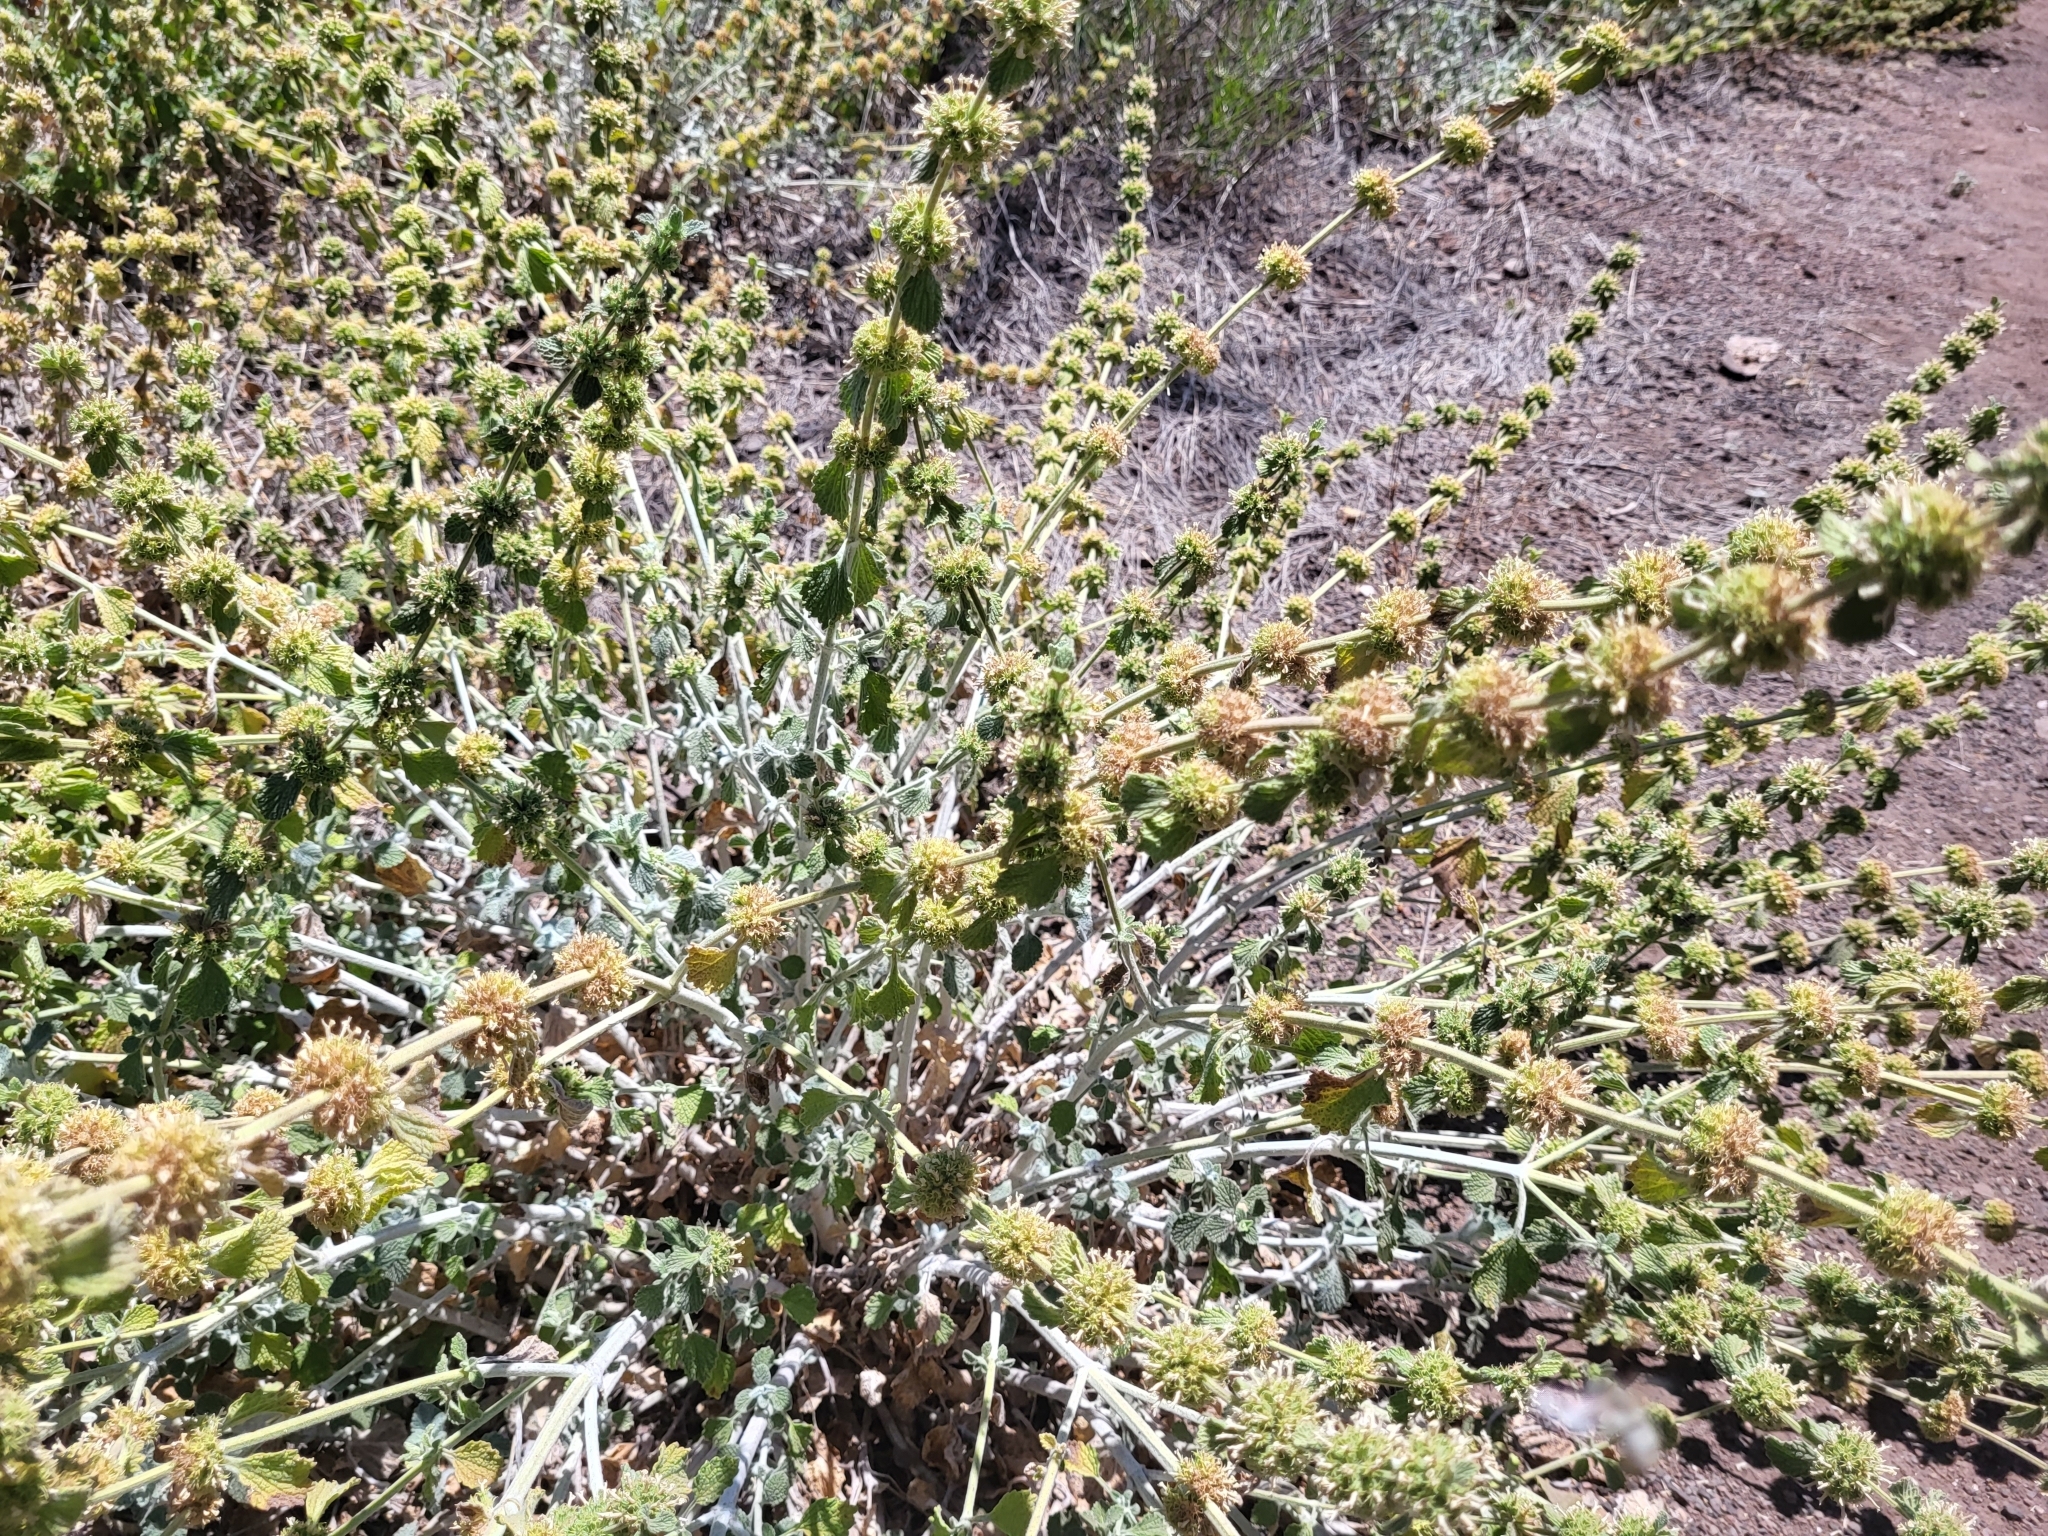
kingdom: Plantae
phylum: Tracheophyta
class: Magnoliopsida
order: Lamiales
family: Lamiaceae
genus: Marrubium
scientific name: Marrubium vulgare
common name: Horehound
